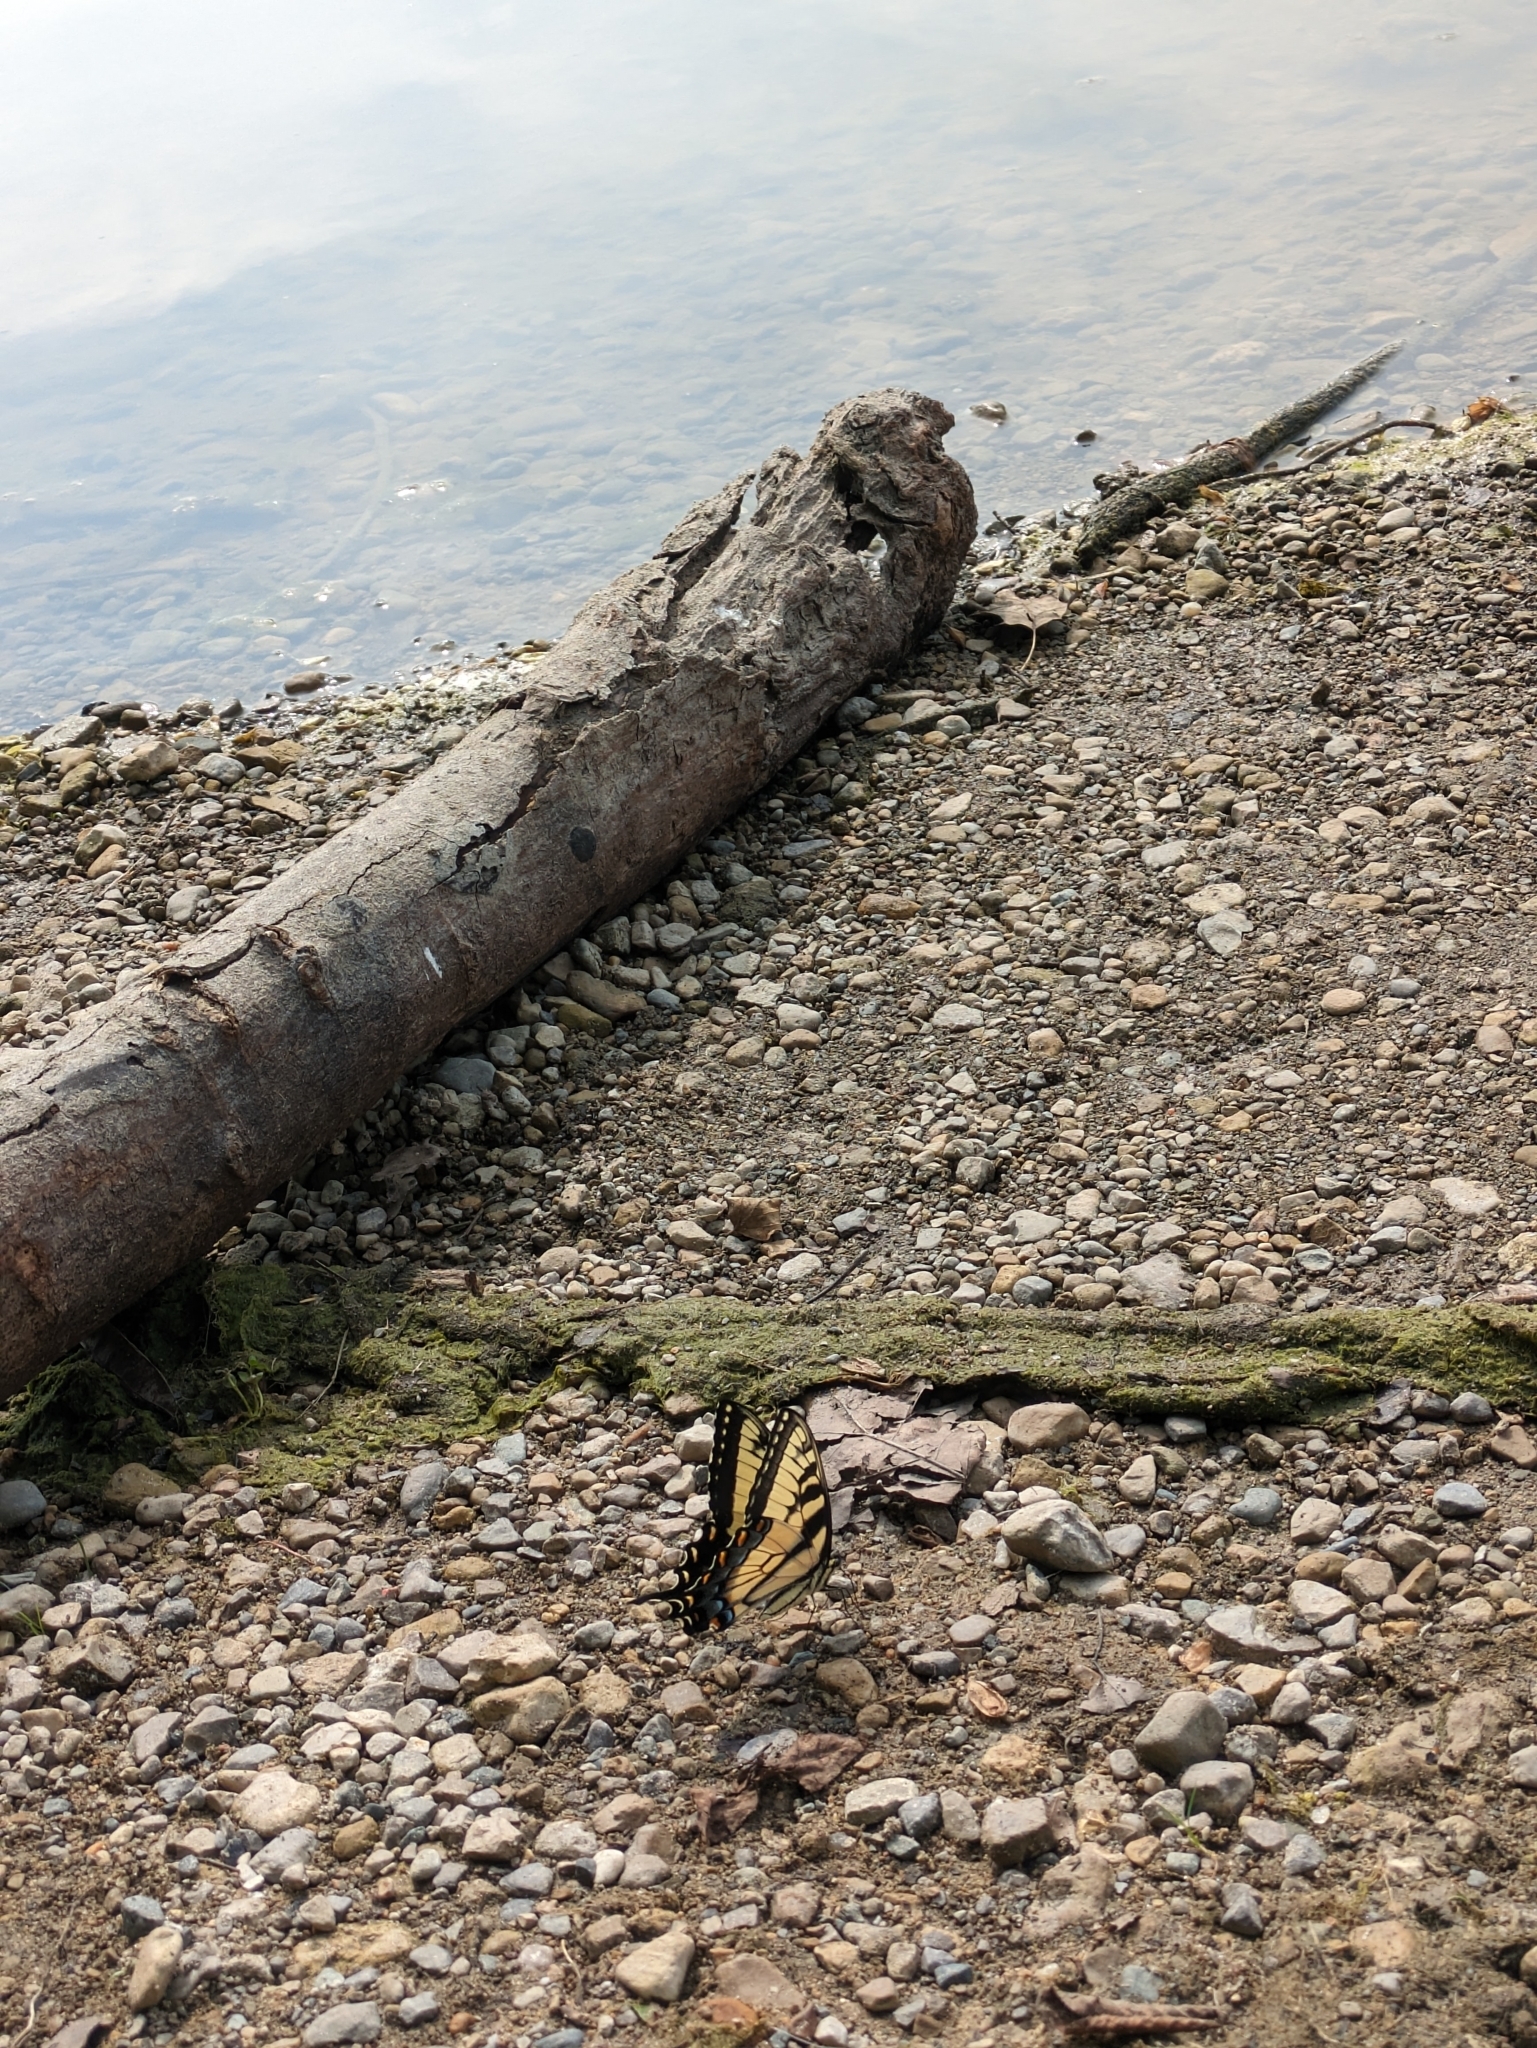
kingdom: Animalia
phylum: Arthropoda
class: Insecta
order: Lepidoptera
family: Papilionidae
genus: Papilio
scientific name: Papilio glaucus
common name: Tiger swallowtail
